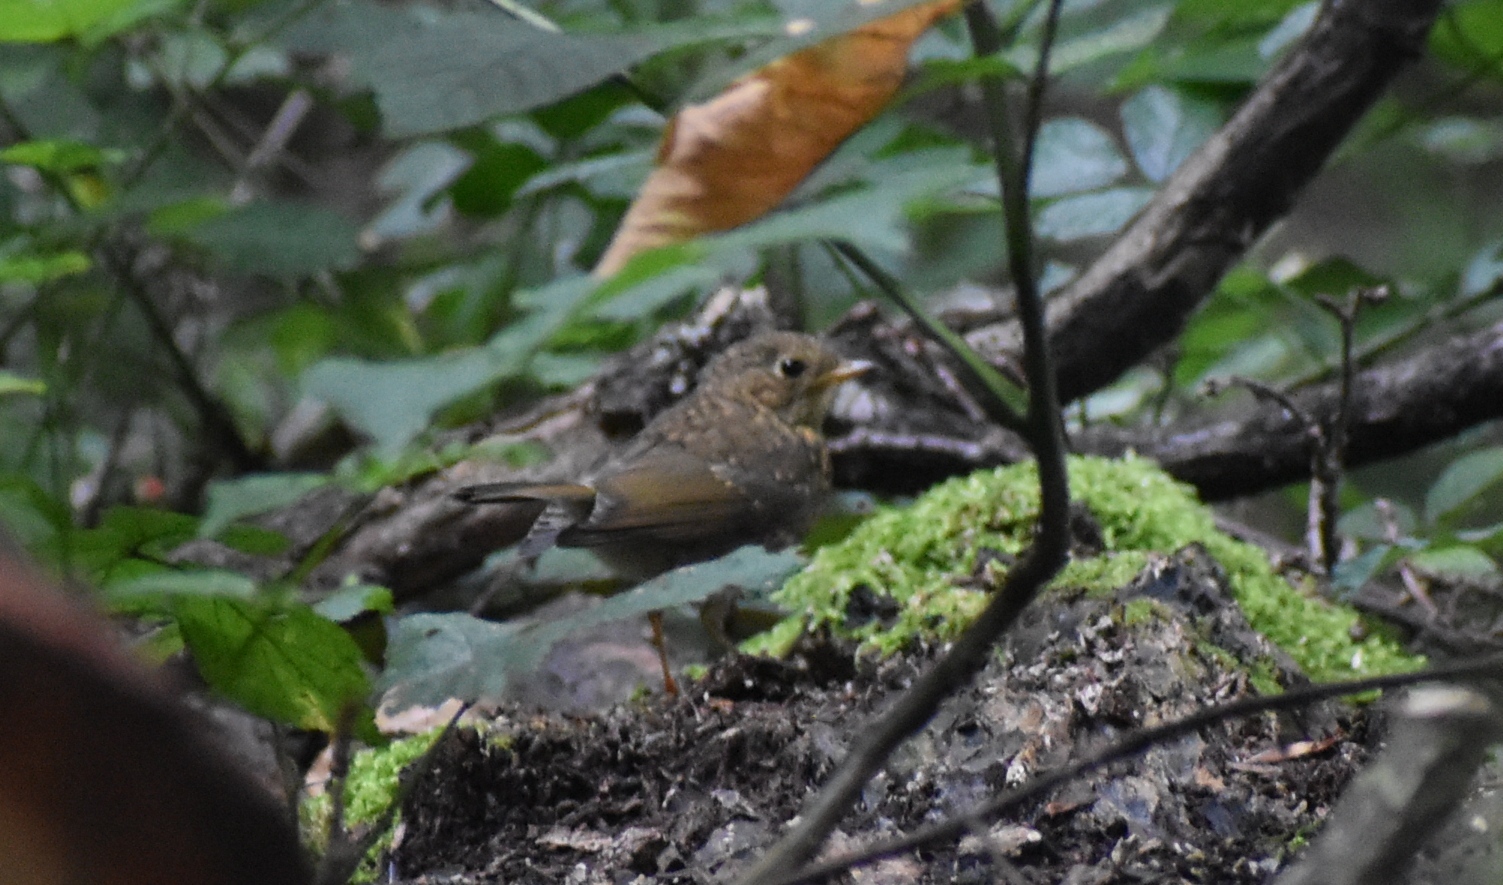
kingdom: Animalia
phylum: Chordata
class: Aves
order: Passeriformes
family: Muscicapidae
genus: Erithacus
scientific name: Erithacus rubecula
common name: European robin
